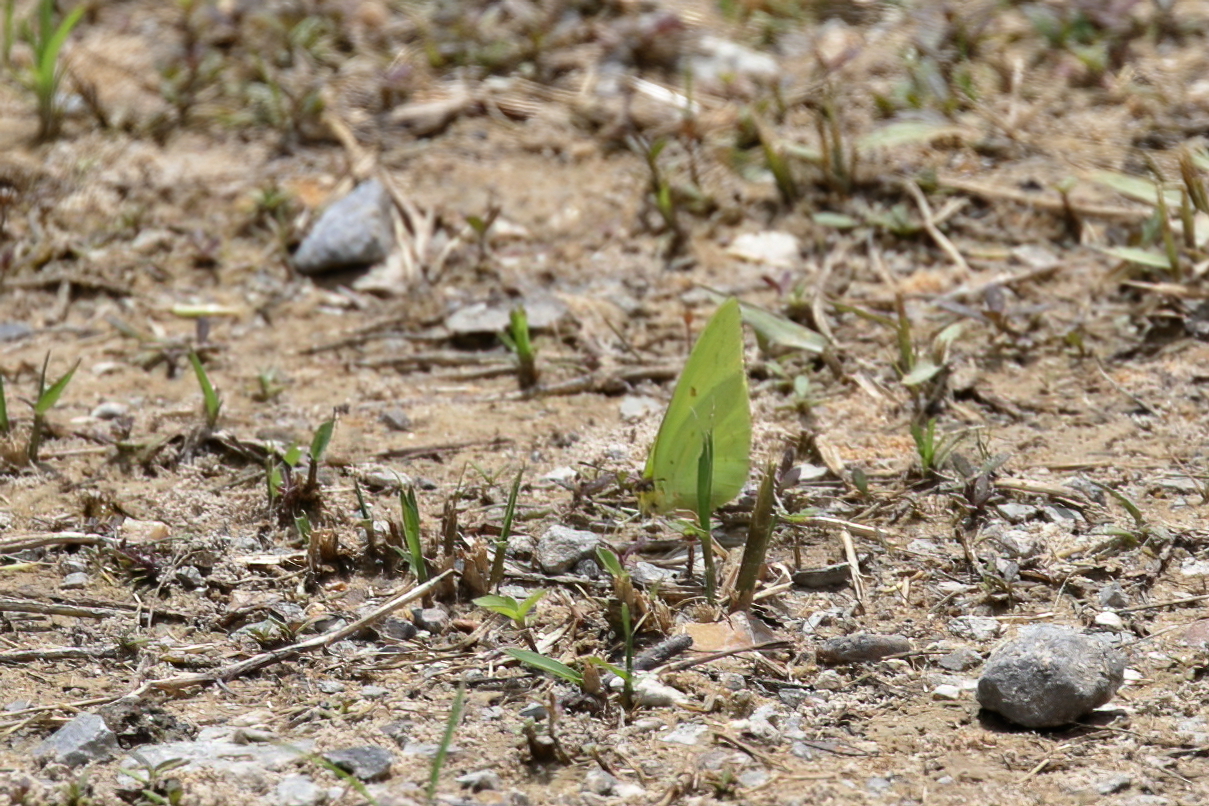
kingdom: Animalia
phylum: Arthropoda
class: Insecta
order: Lepidoptera
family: Pieridae
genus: Phoebis
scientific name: Phoebis sennae
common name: Cloudless sulphur
